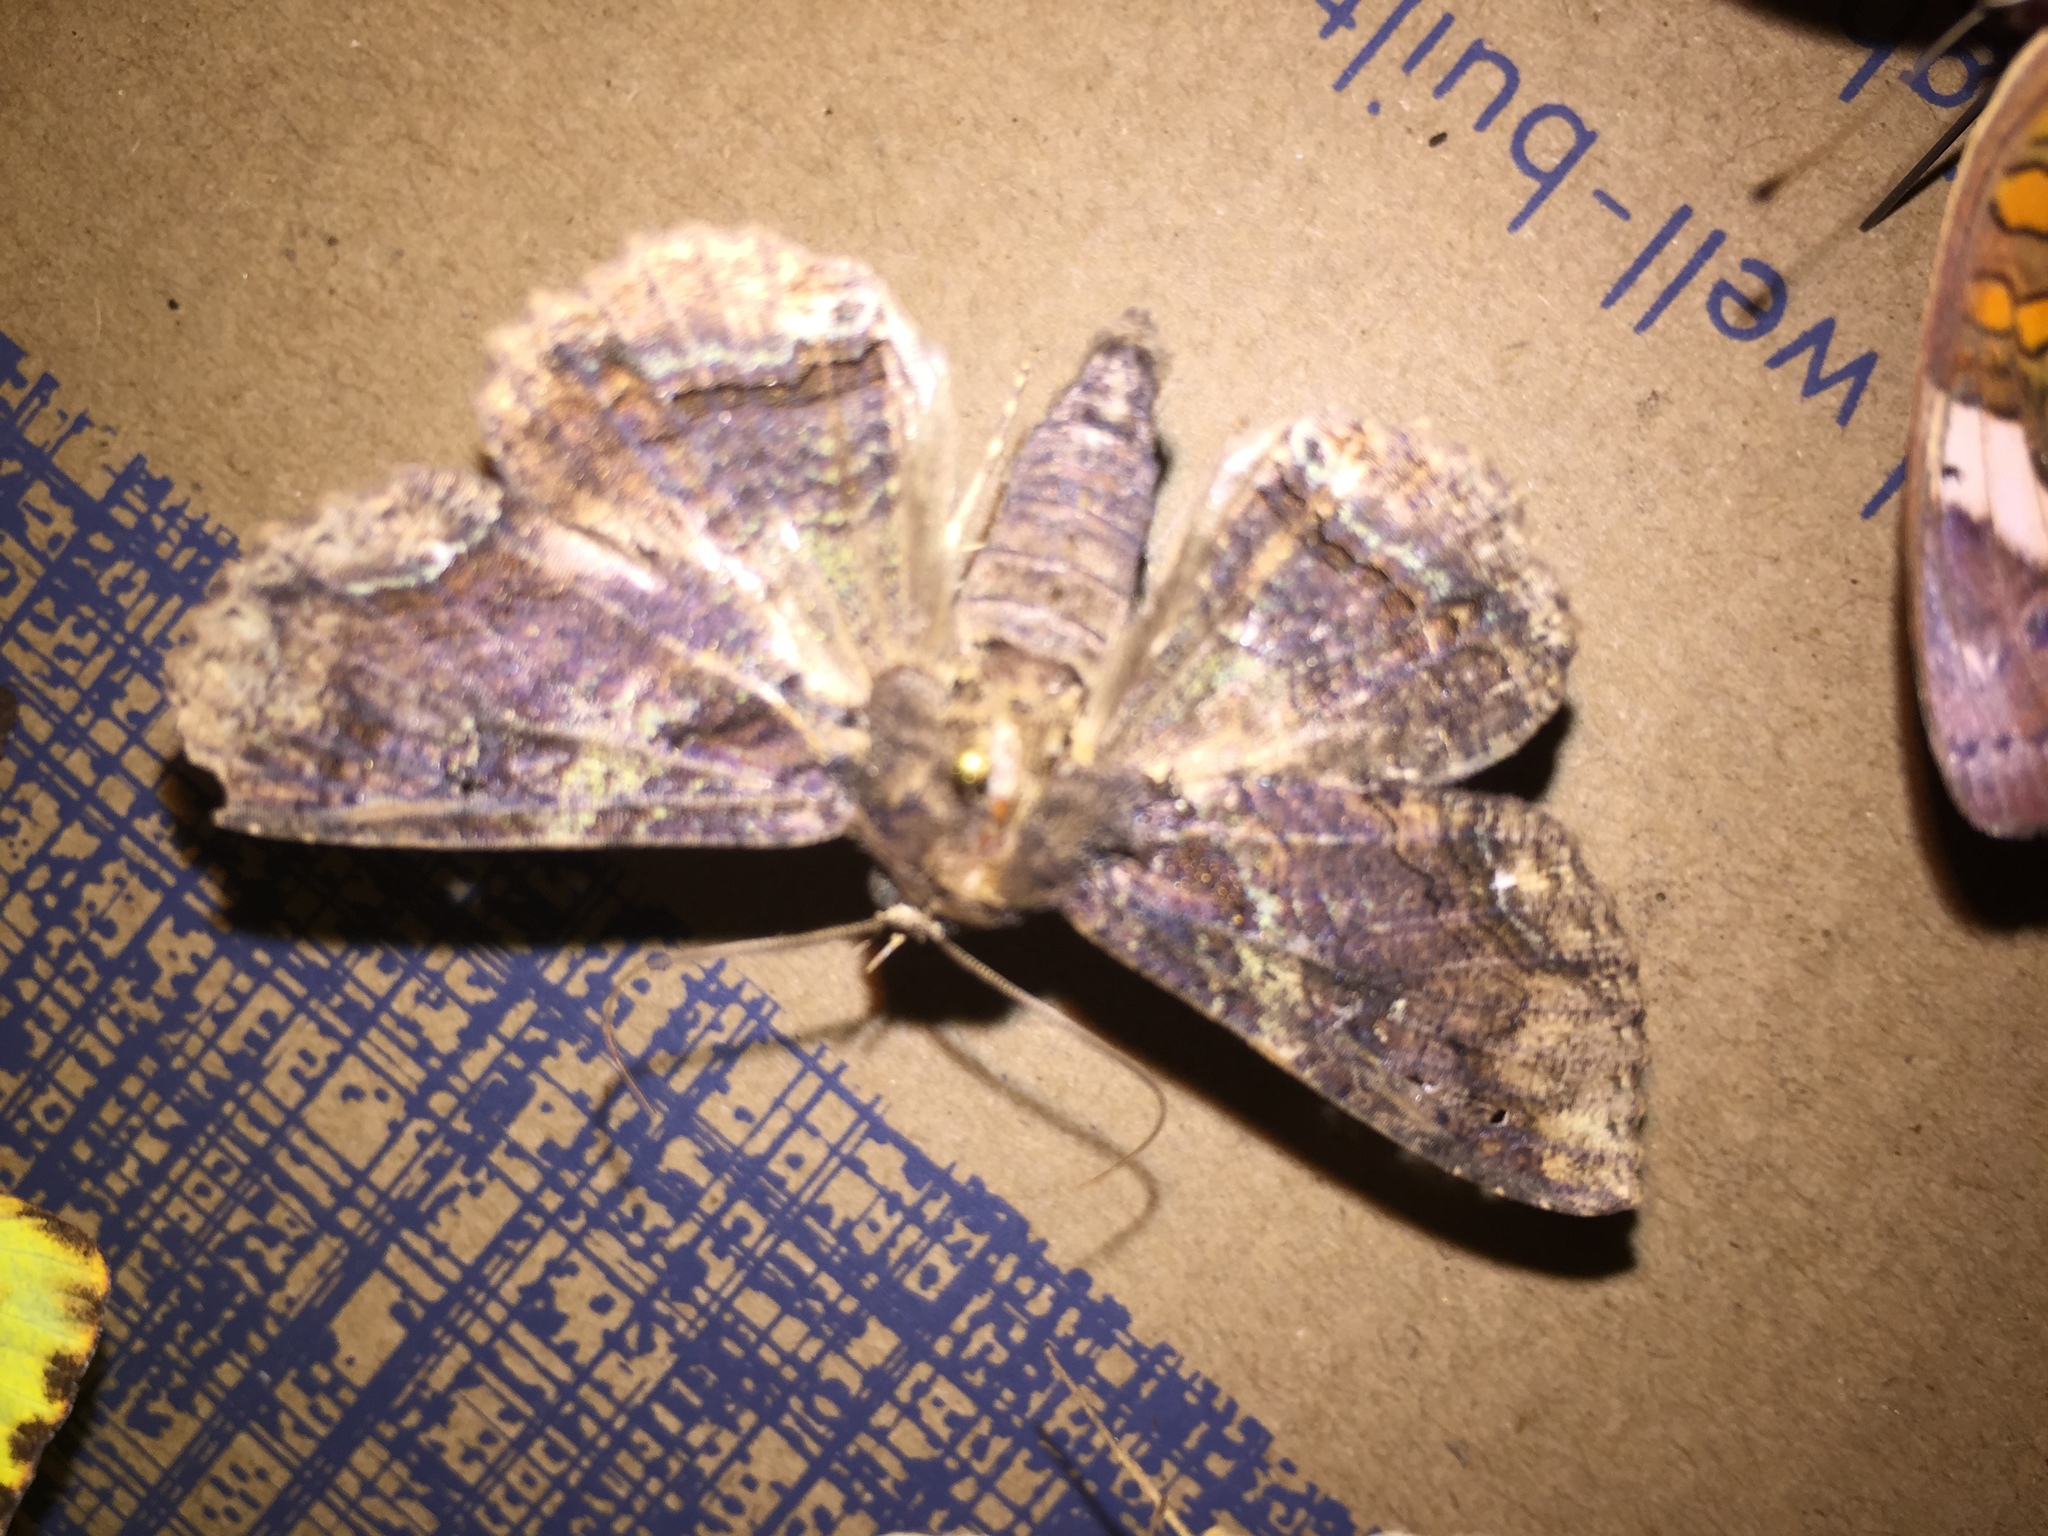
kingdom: Animalia
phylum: Arthropoda
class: Insecta
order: Lepidoptera
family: Erebidae
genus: Zale
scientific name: Zale lunata
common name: Lunate zale moth
